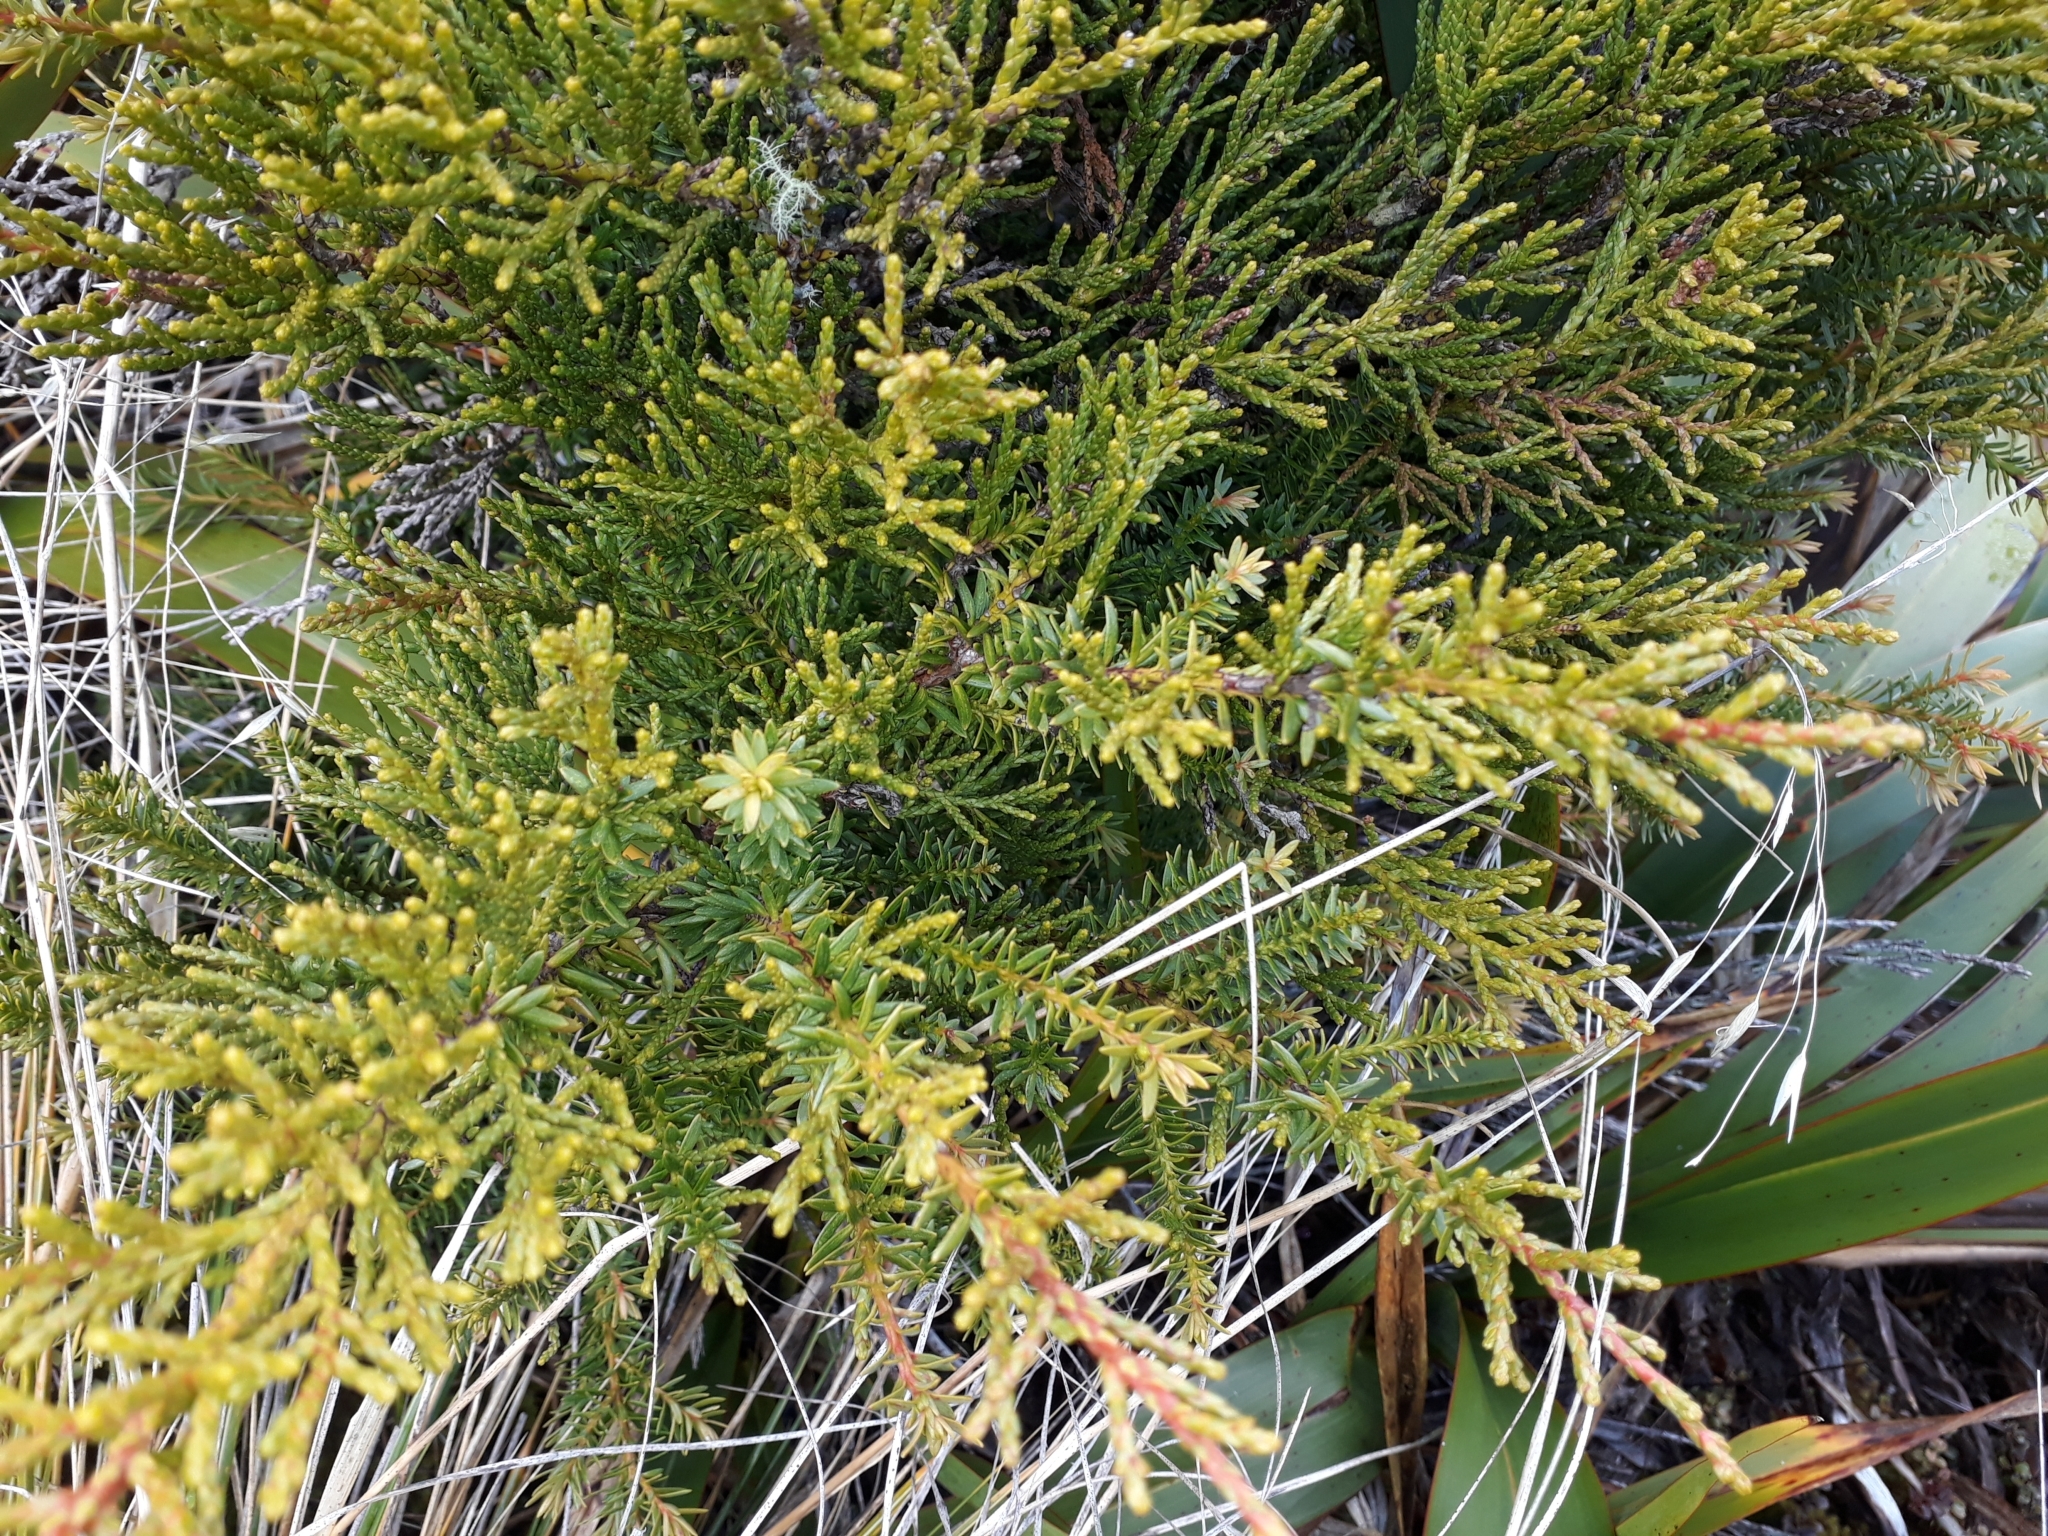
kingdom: Plantae
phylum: Tracheophyta
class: Pinopsida
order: Pinales
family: Podocarpaceae
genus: Halocarpus
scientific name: Halocarpus biformis
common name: Alpine tarwood
